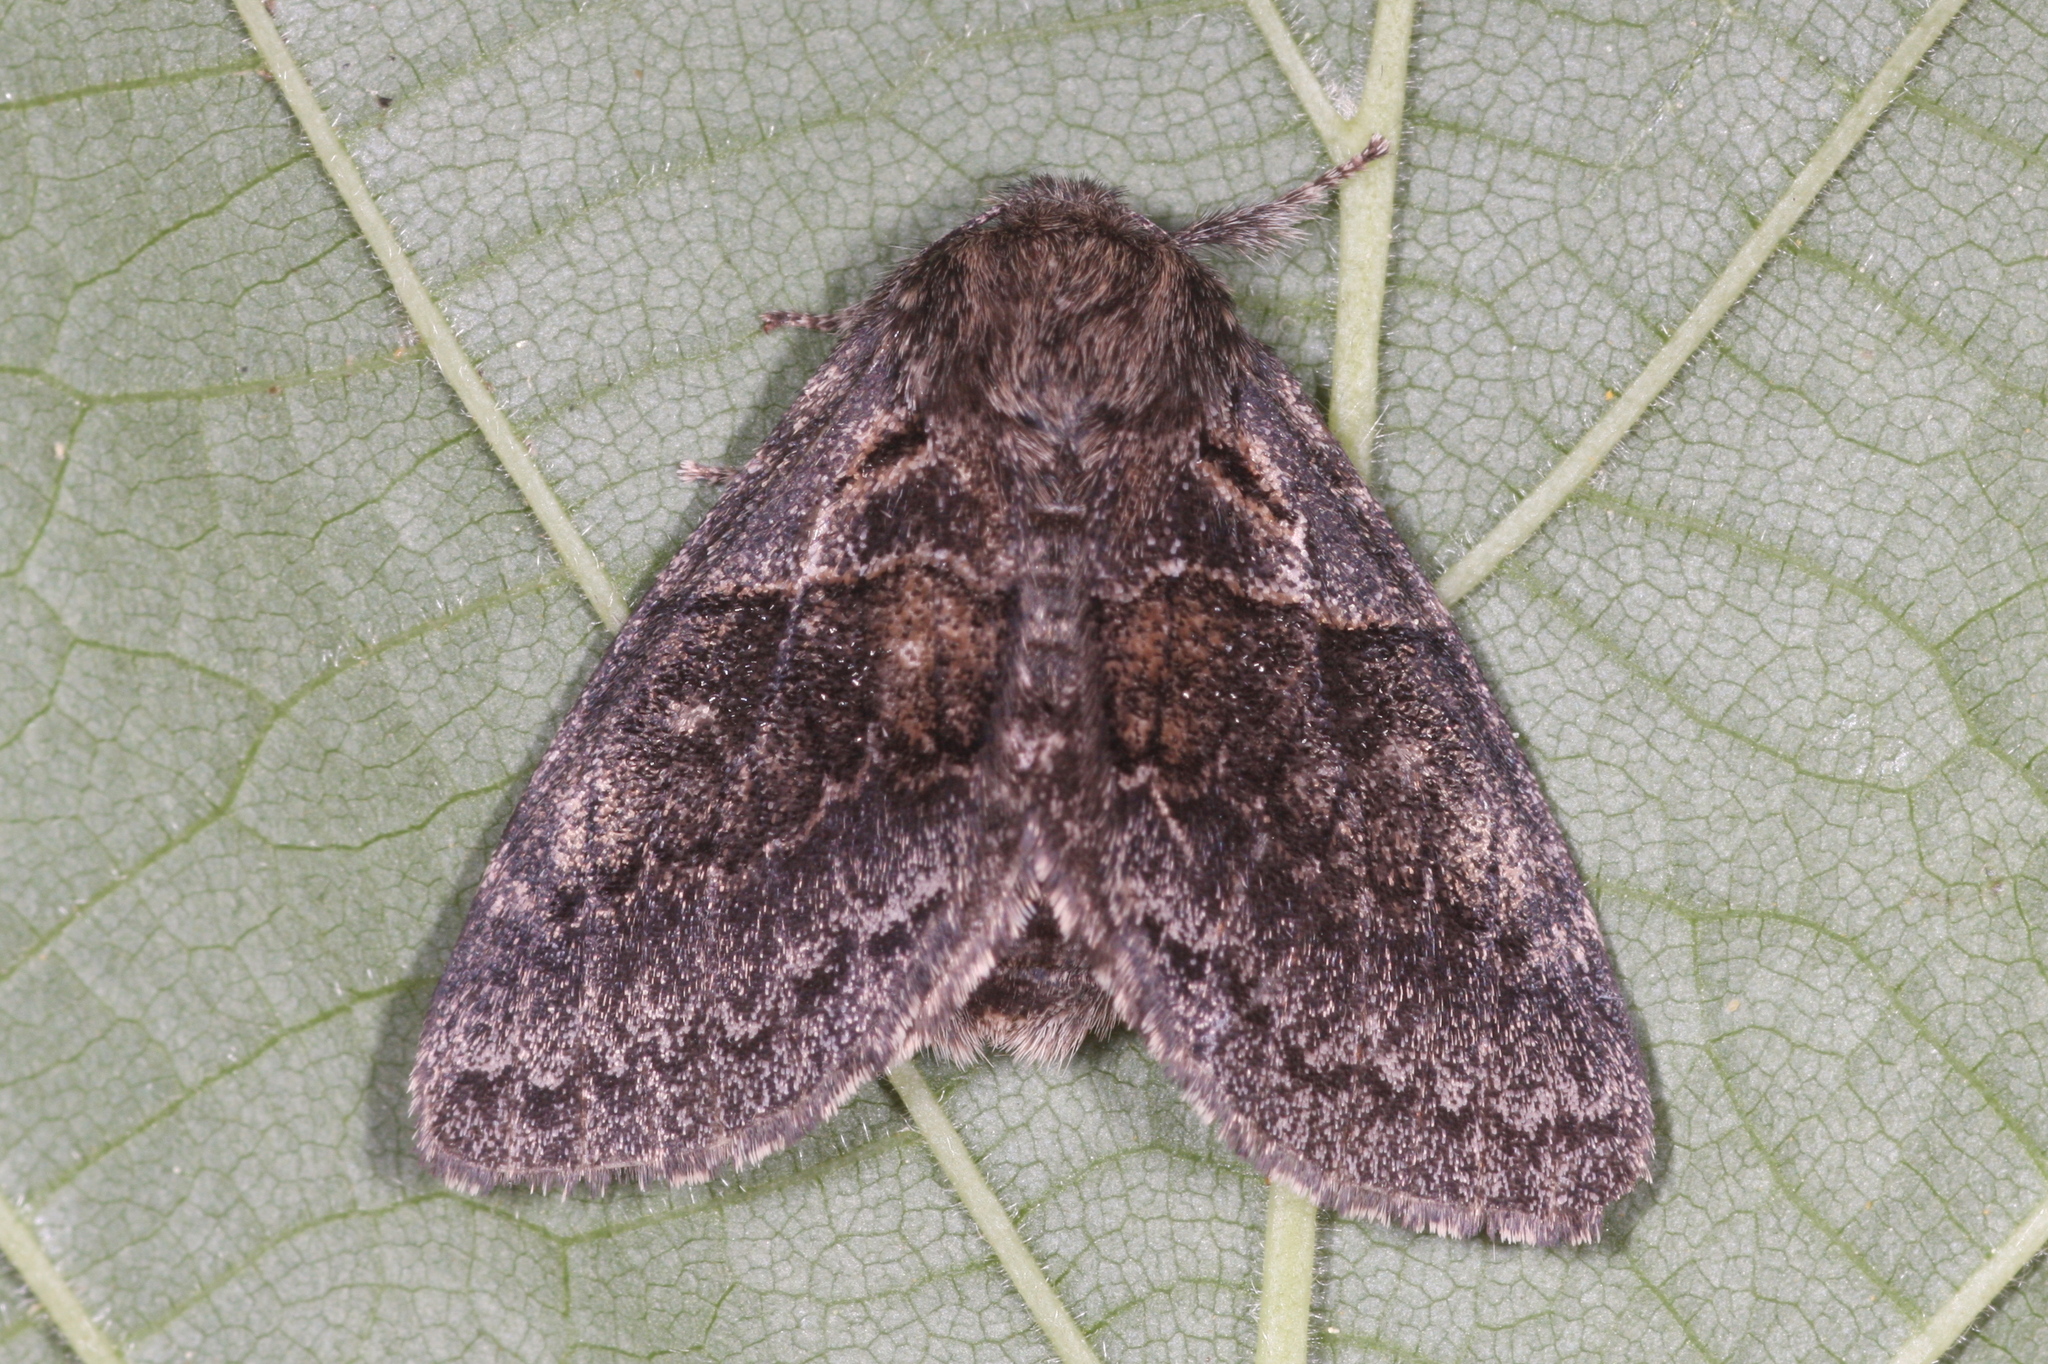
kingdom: Animalia
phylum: Arthropoda
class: Insecta
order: Lepidoptera
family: Notodontidae
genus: Gluphisia
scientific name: Gluphisia crenata
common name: Dusky marbled brown
